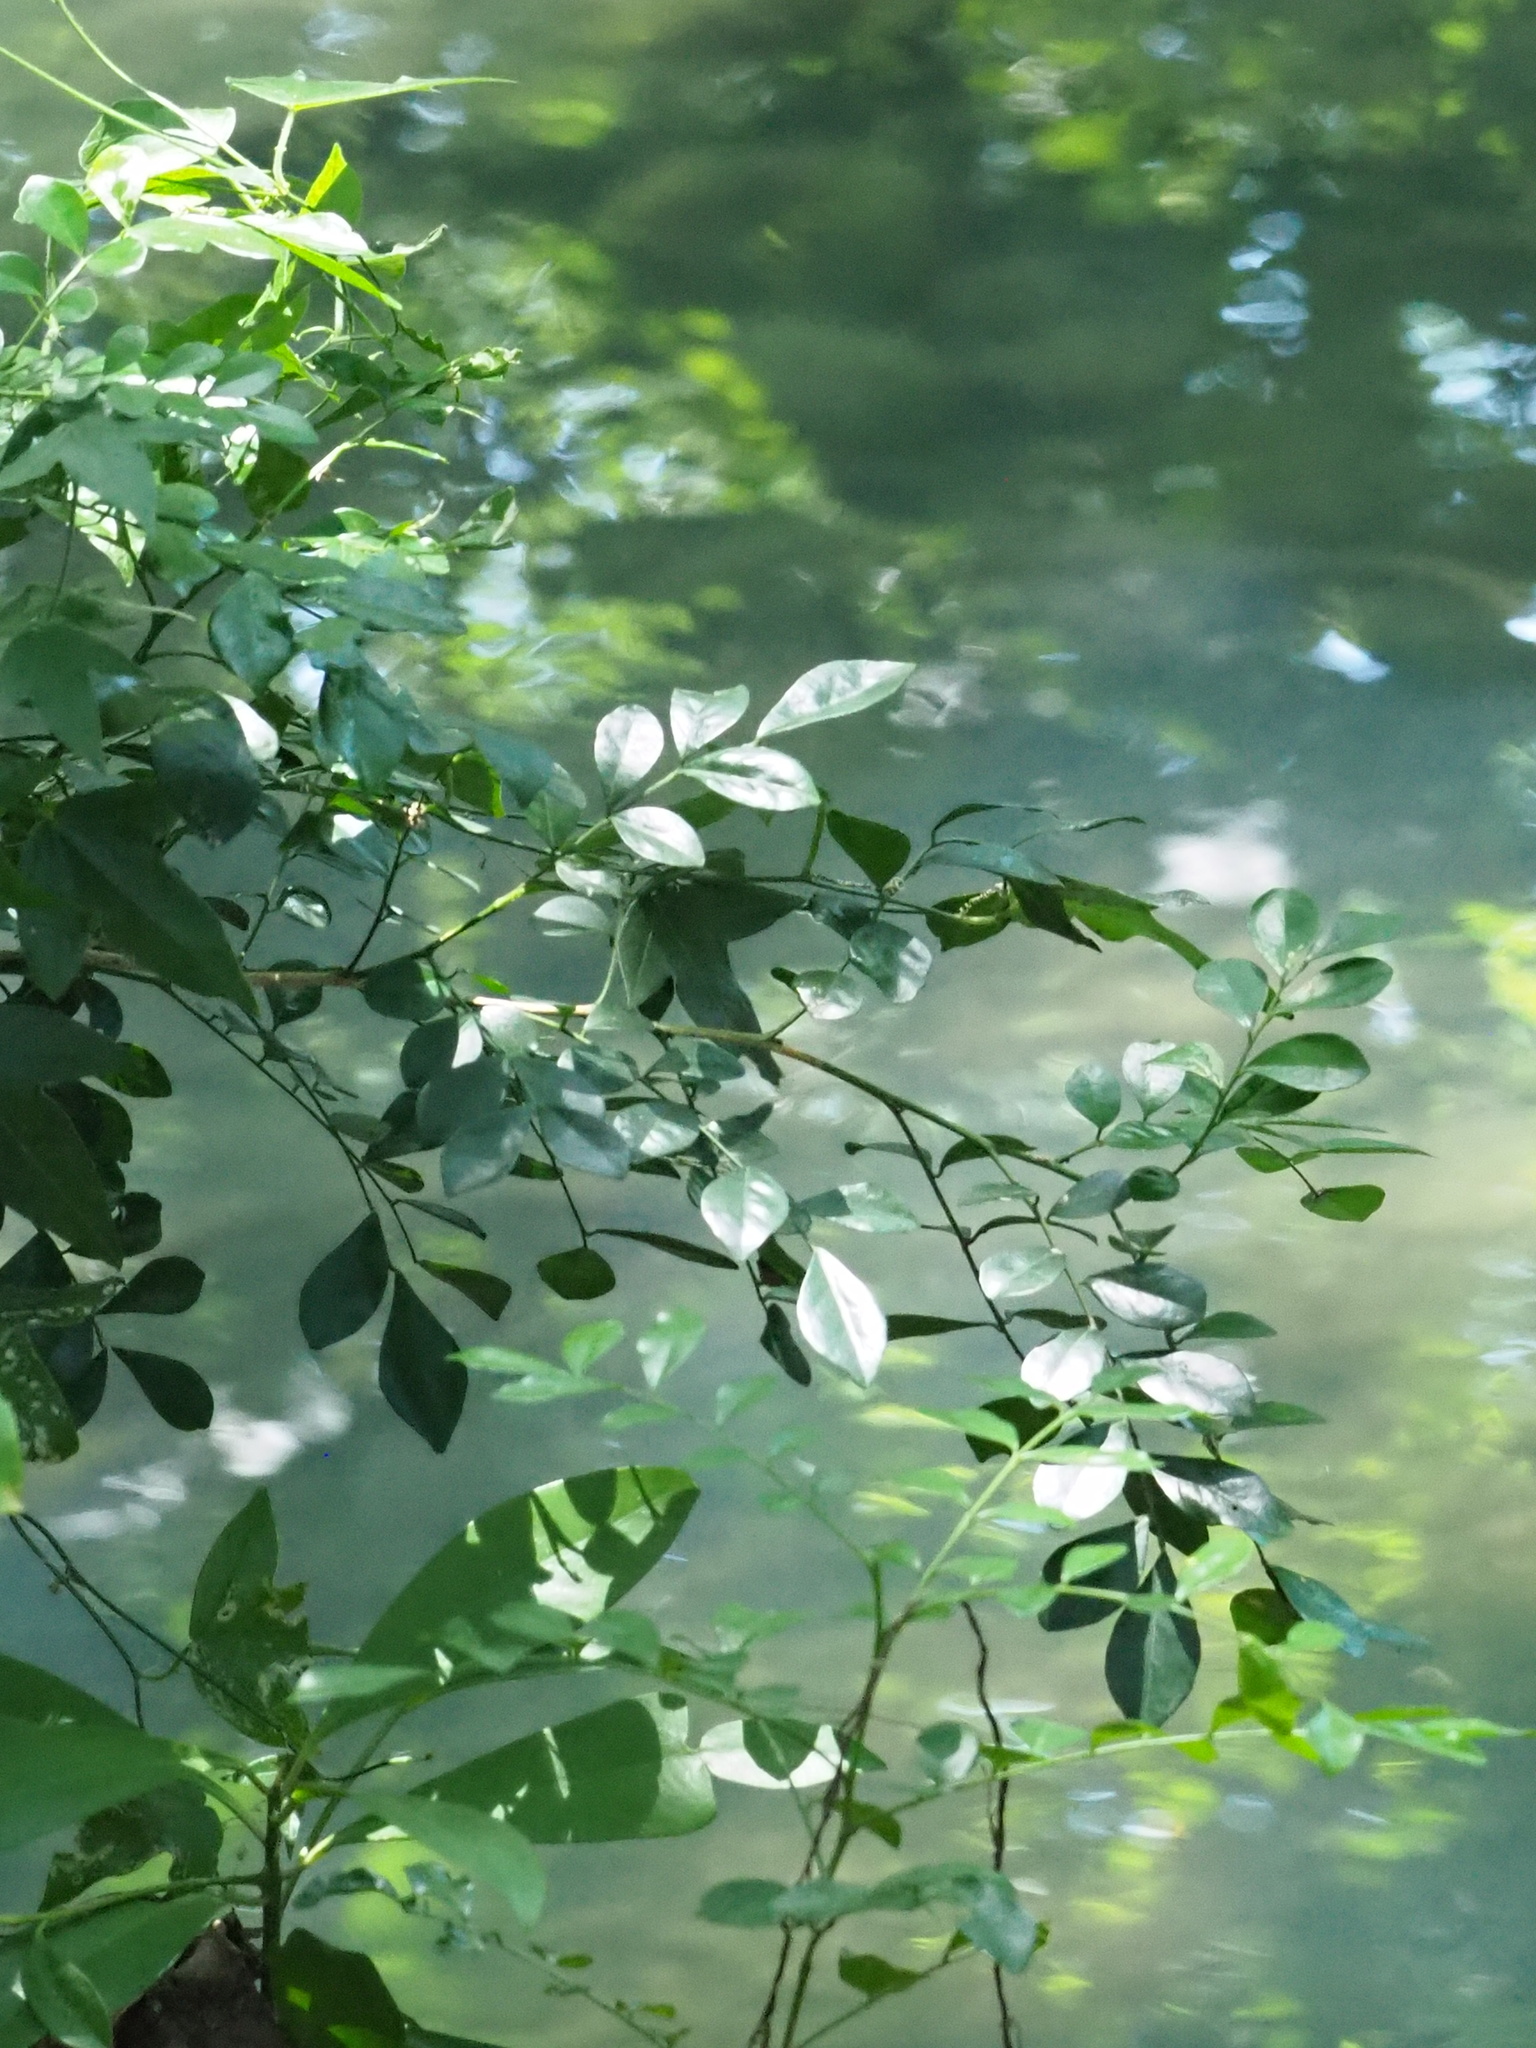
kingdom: Plantae
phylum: Tracheophyta
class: Magnoliopsida
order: Sapindales
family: Rutaceae
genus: Murraya
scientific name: Murraya paniculata
